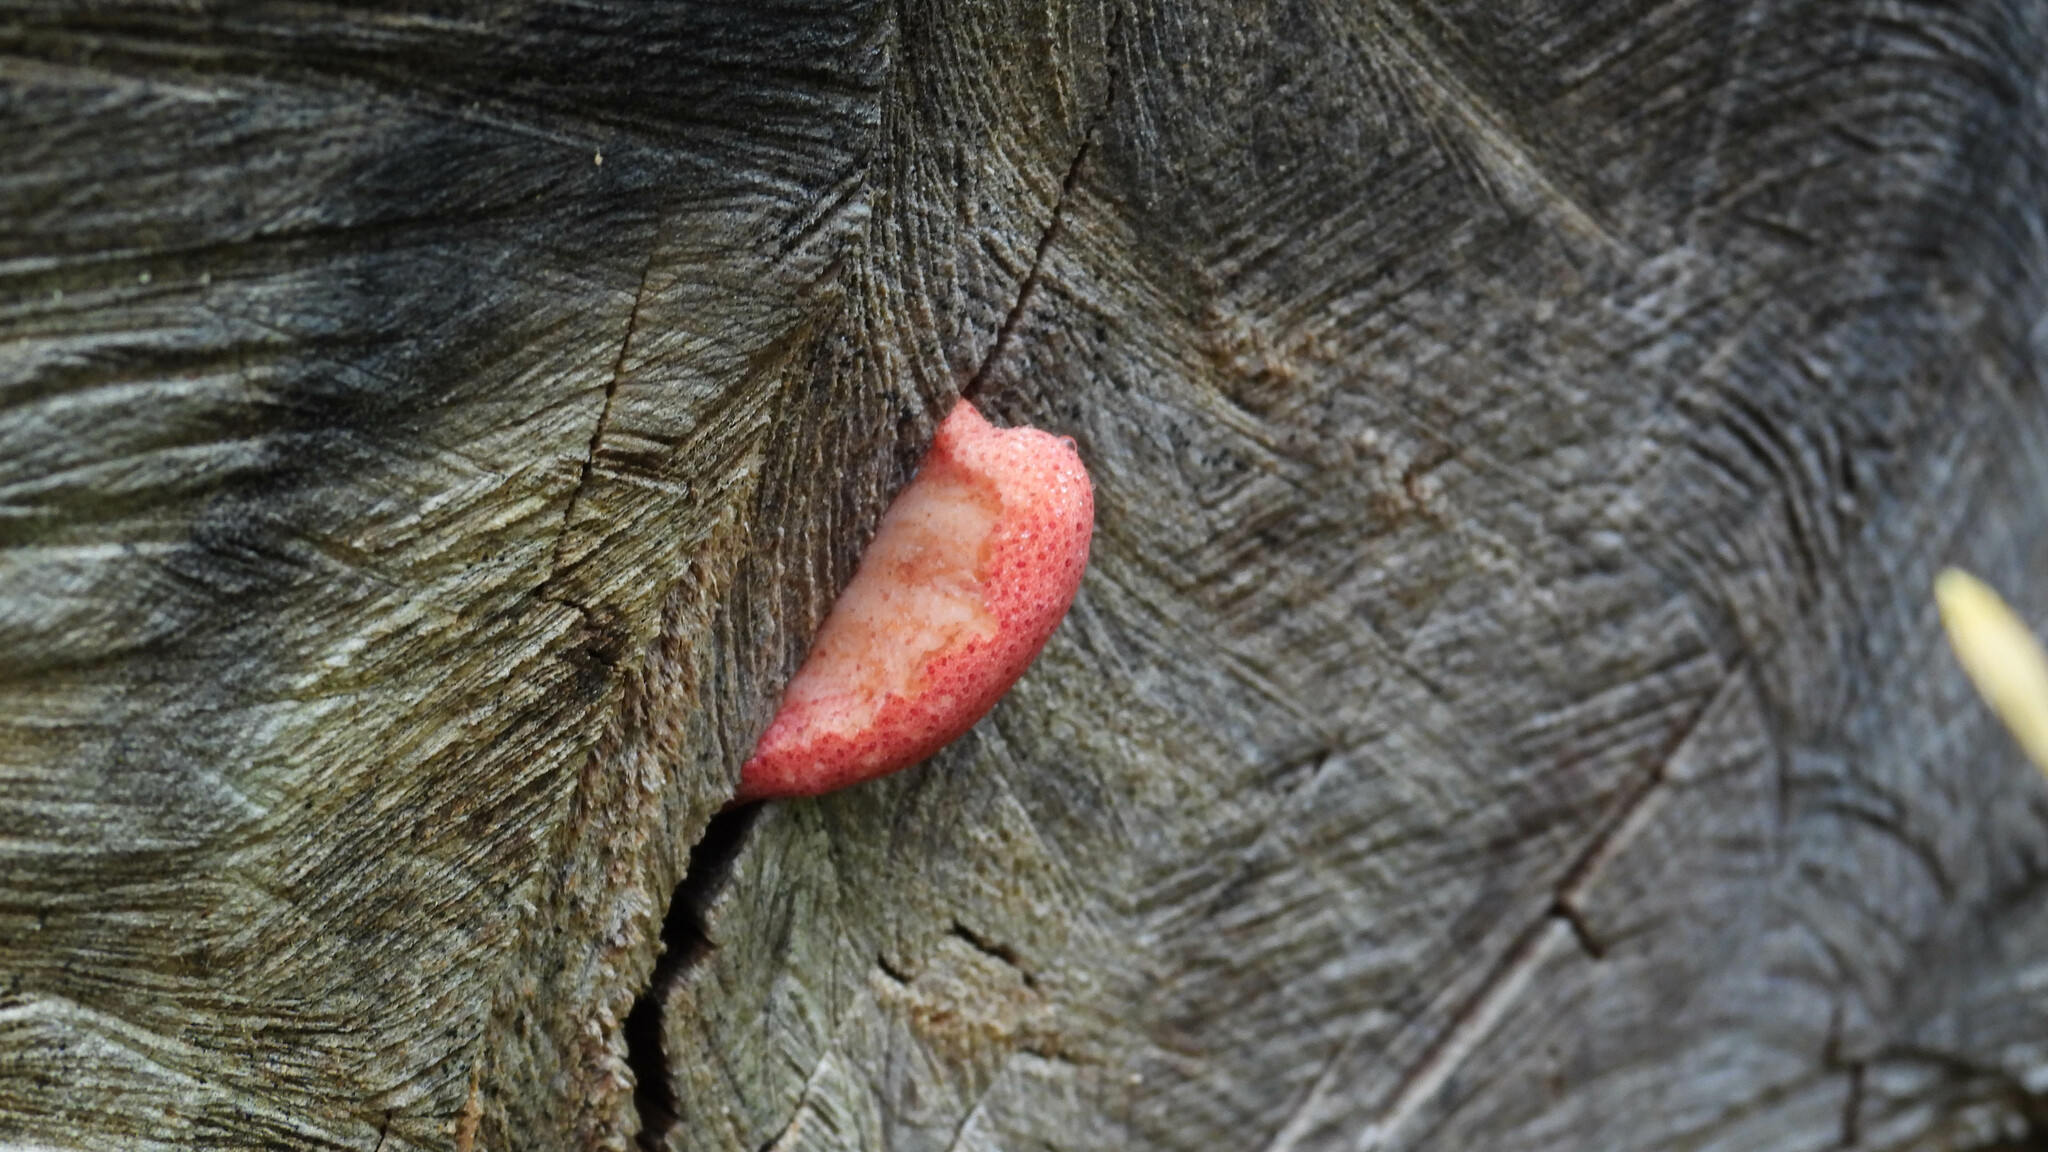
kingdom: Fungi
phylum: Basidiomycota
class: Agaricomycetes
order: Agaricales
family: Fistulinaceae
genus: Fistulina
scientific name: Fistulina antarctica
